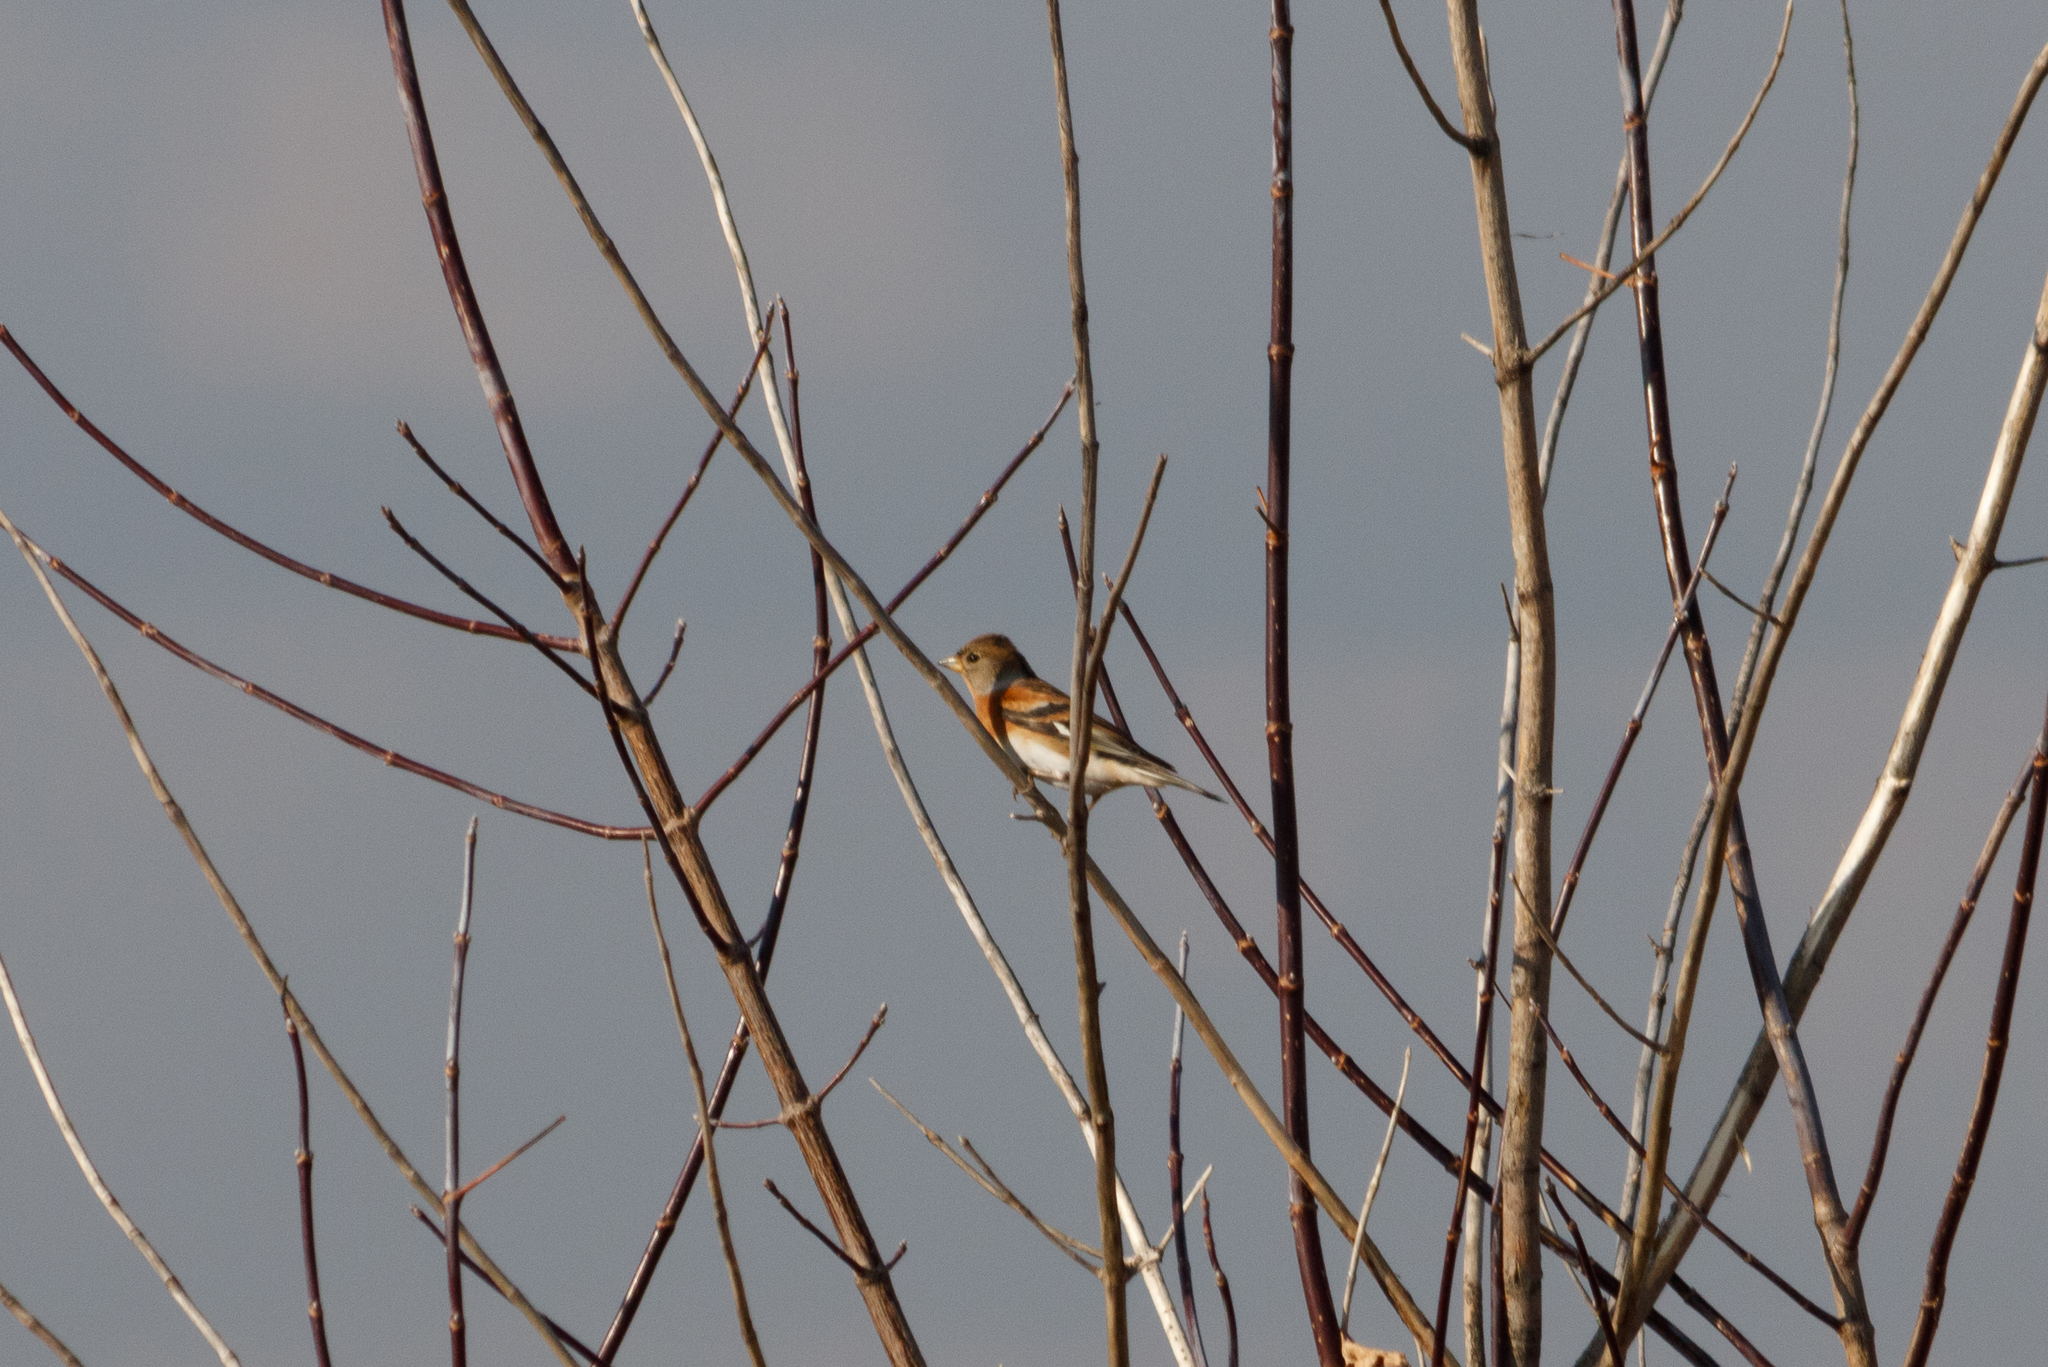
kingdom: Animalia
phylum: Chordata
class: Aves
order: Passeriformes
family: Fringillidae
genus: Fringilla
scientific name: Fringilla montifringilla
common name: Brambling
